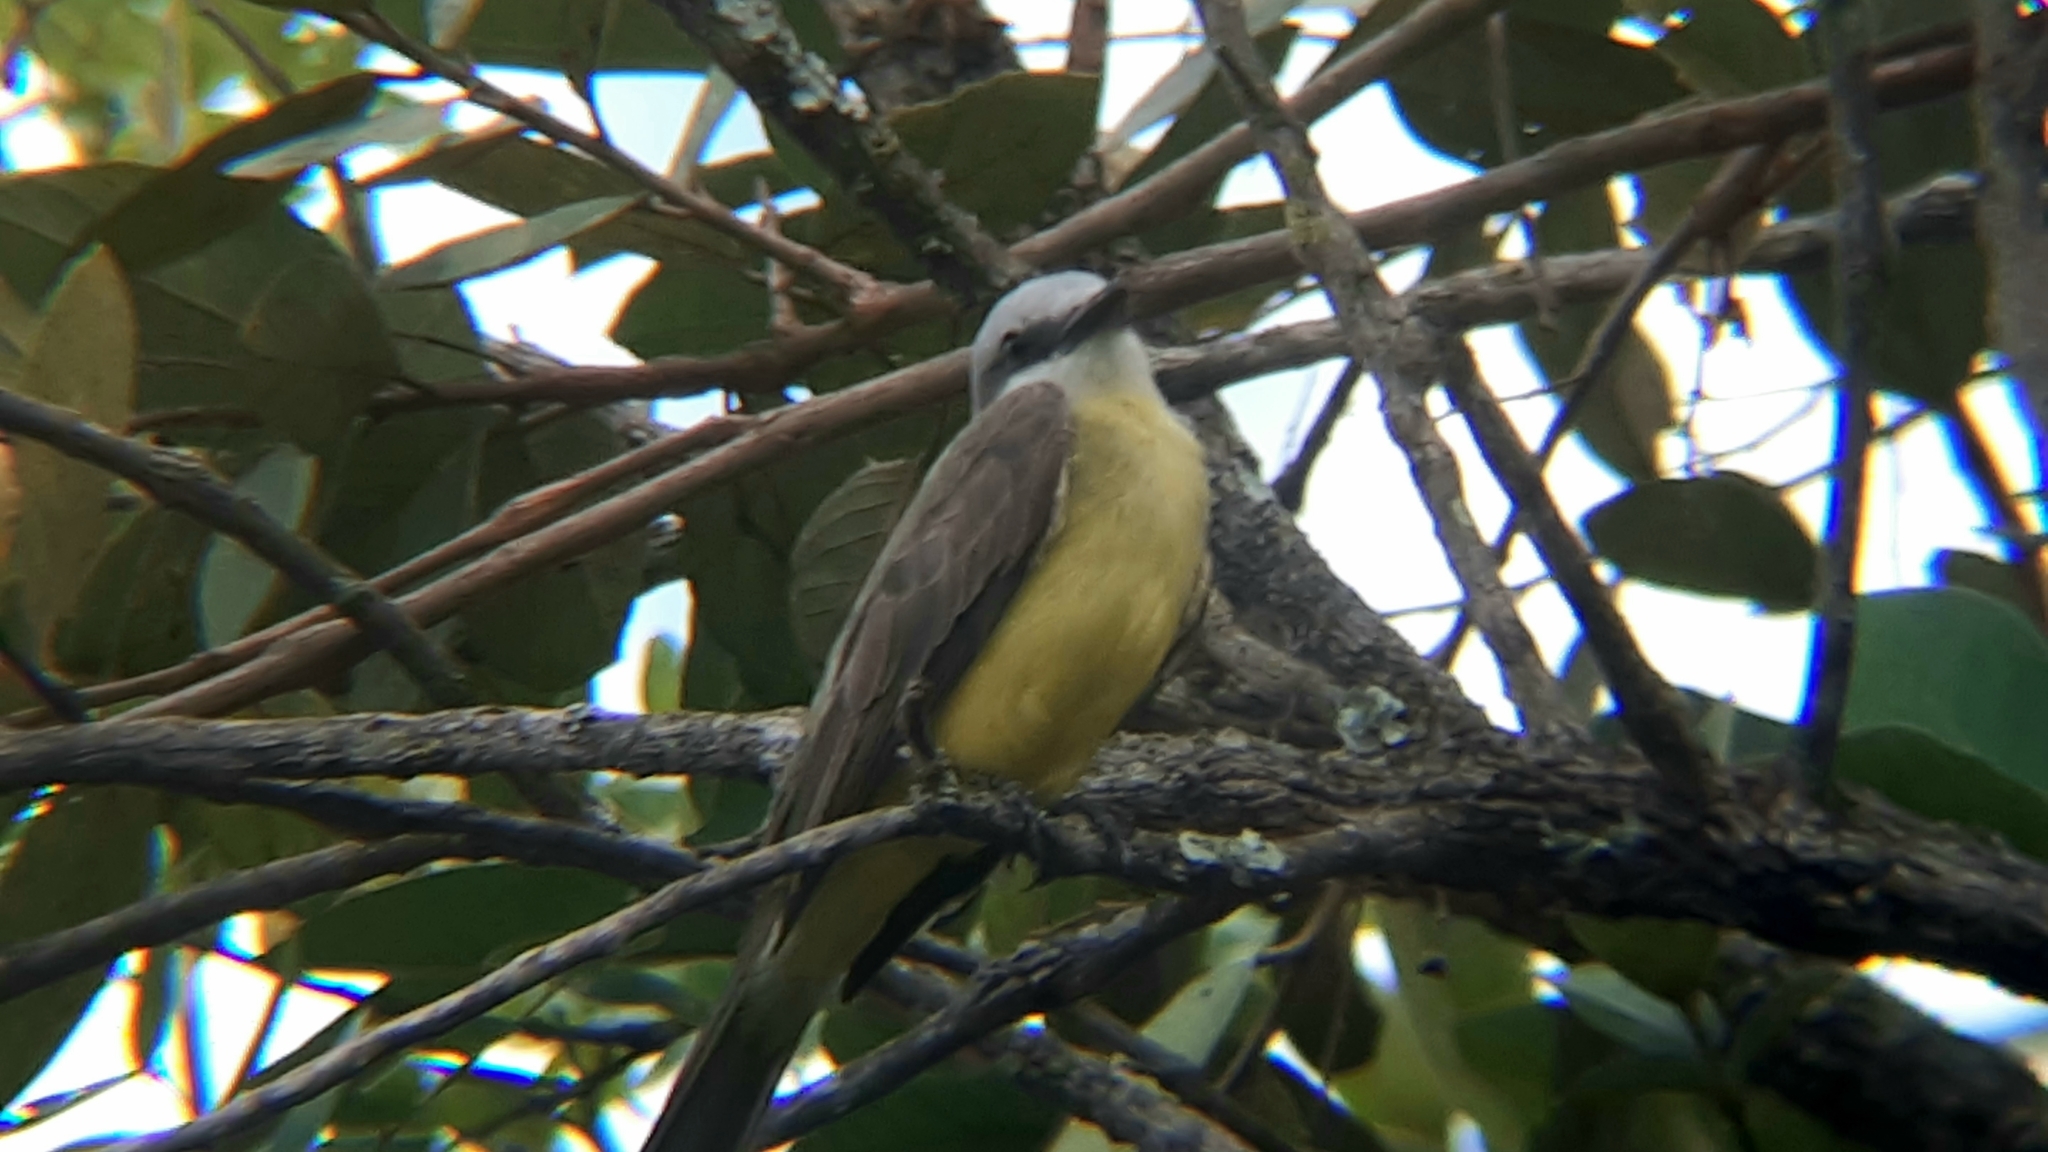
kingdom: Animalia
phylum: Chordata
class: Aves
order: Passeriformes
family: Tyrannidae
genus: Tyrannus
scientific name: Tyrannus melancholicus
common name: Tropical kingbird
